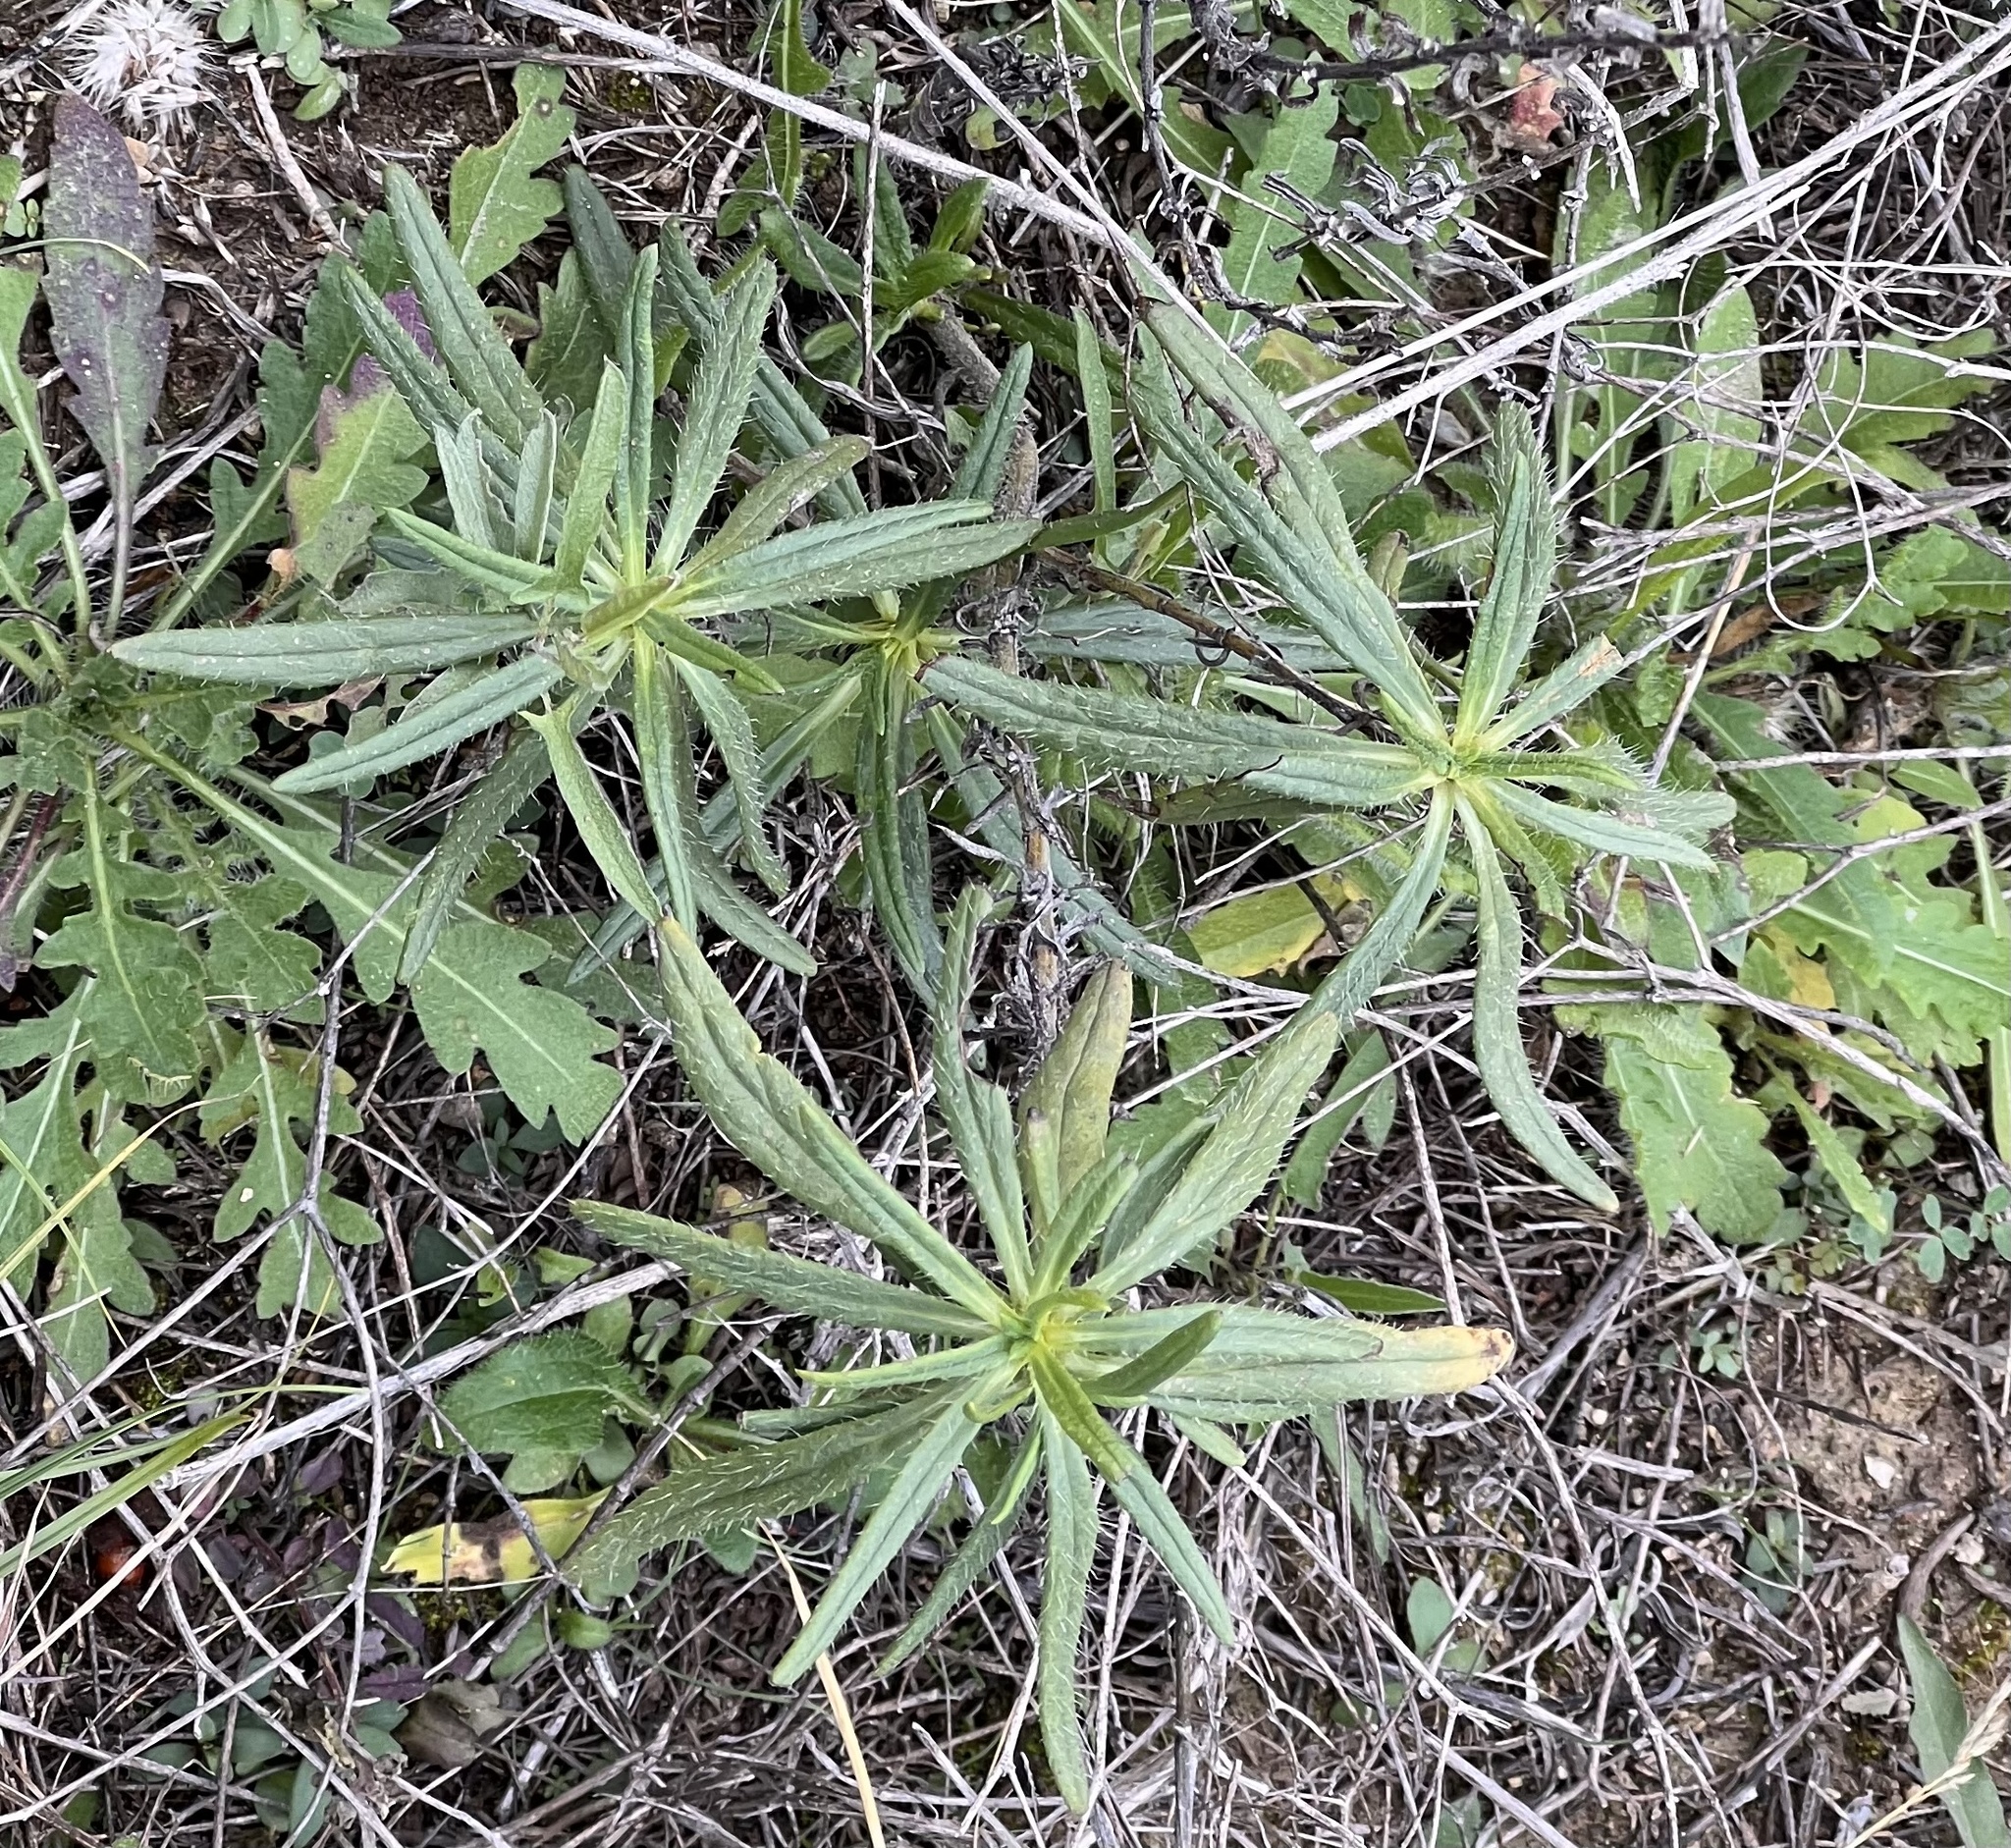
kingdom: Plantae
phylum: Tracheophyta
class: Magnoliopsida
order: Lamiales
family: Lamiaceae
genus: Salvia
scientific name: Salvia texana
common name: Texas sage
